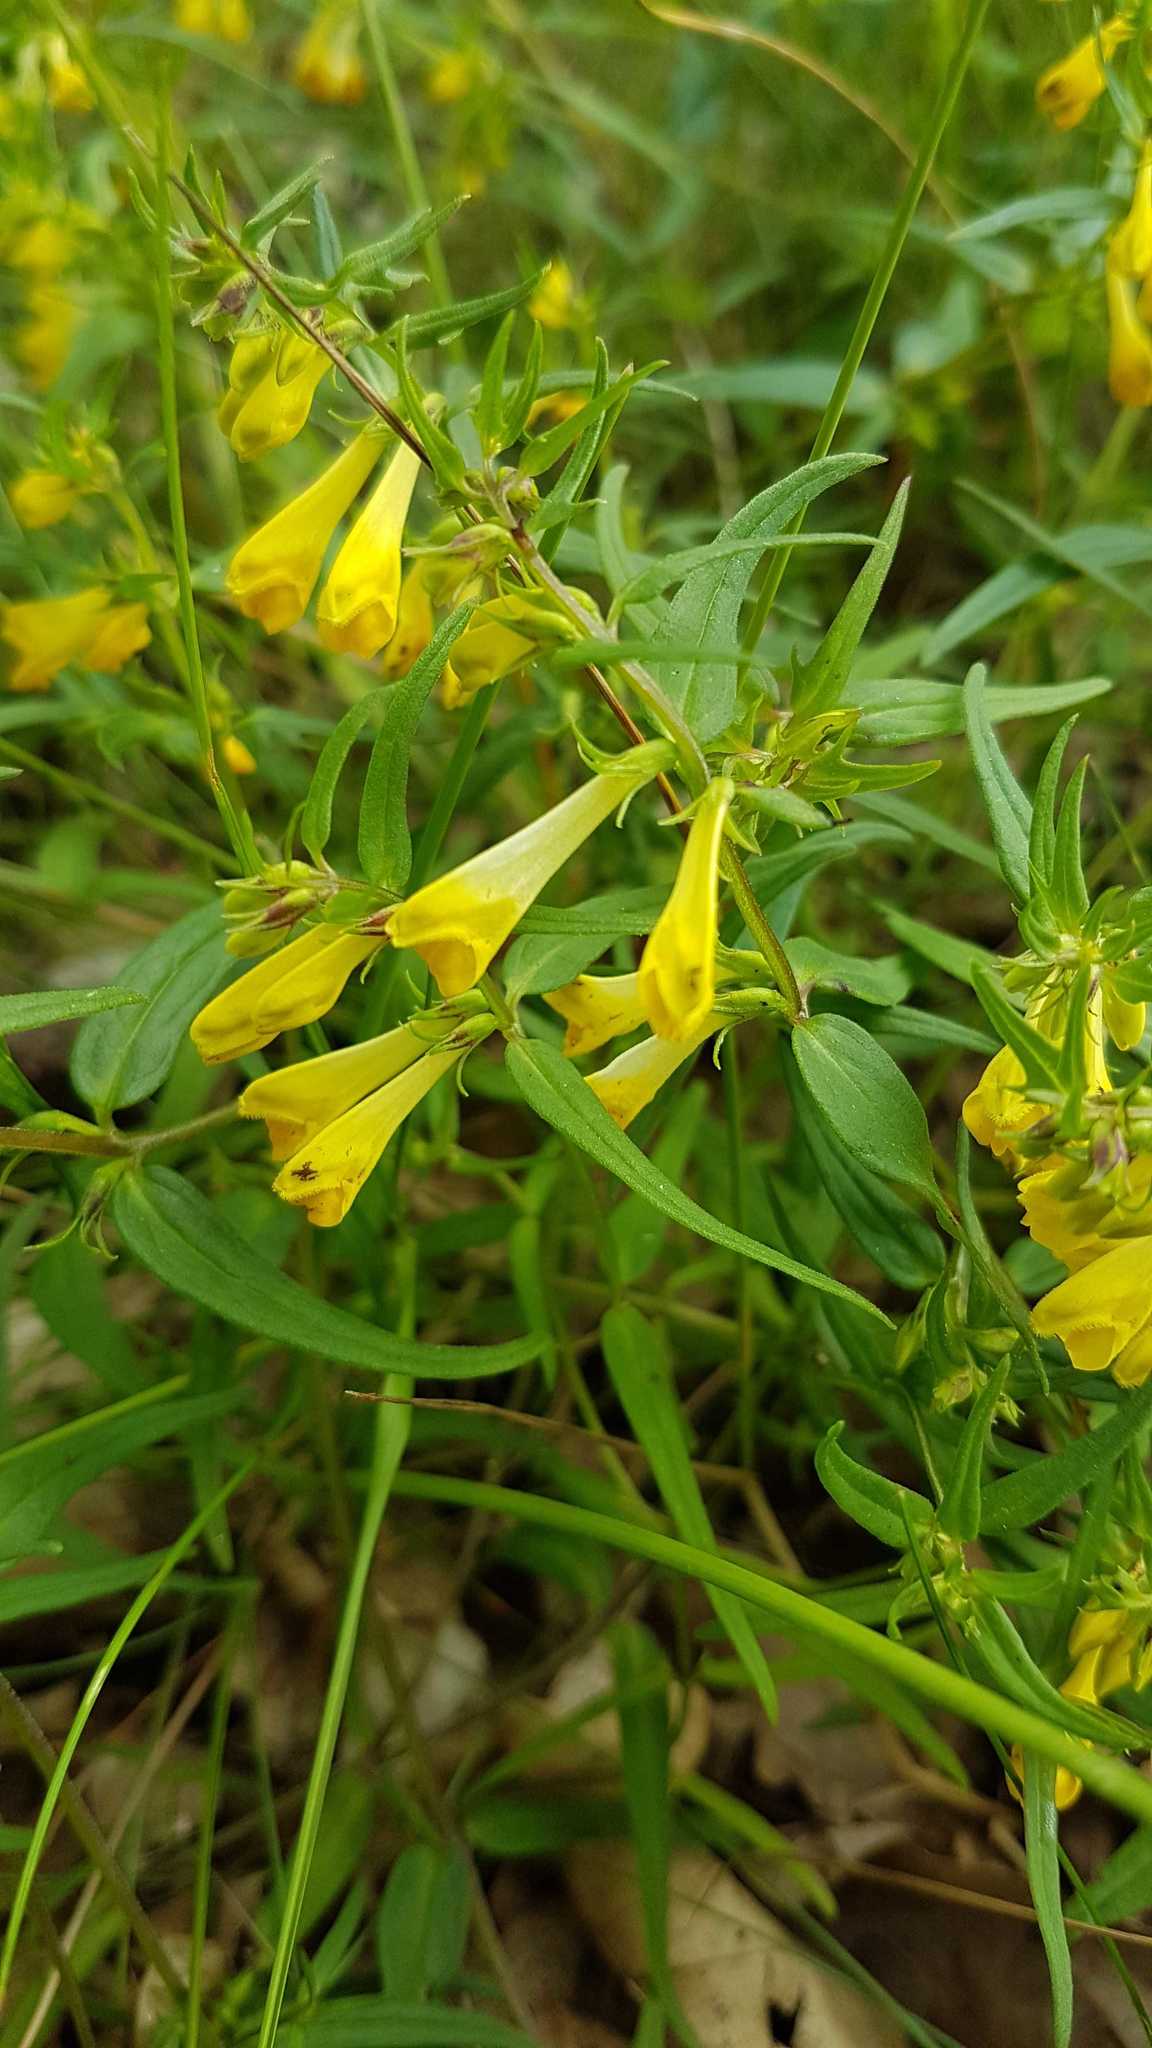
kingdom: Plantae
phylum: Tracheophyta
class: Magnoliopsida
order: Lamiales
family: Orobanchaceae
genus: Melampyrum
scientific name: Melampyrum pratense
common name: Common cow-wheat
